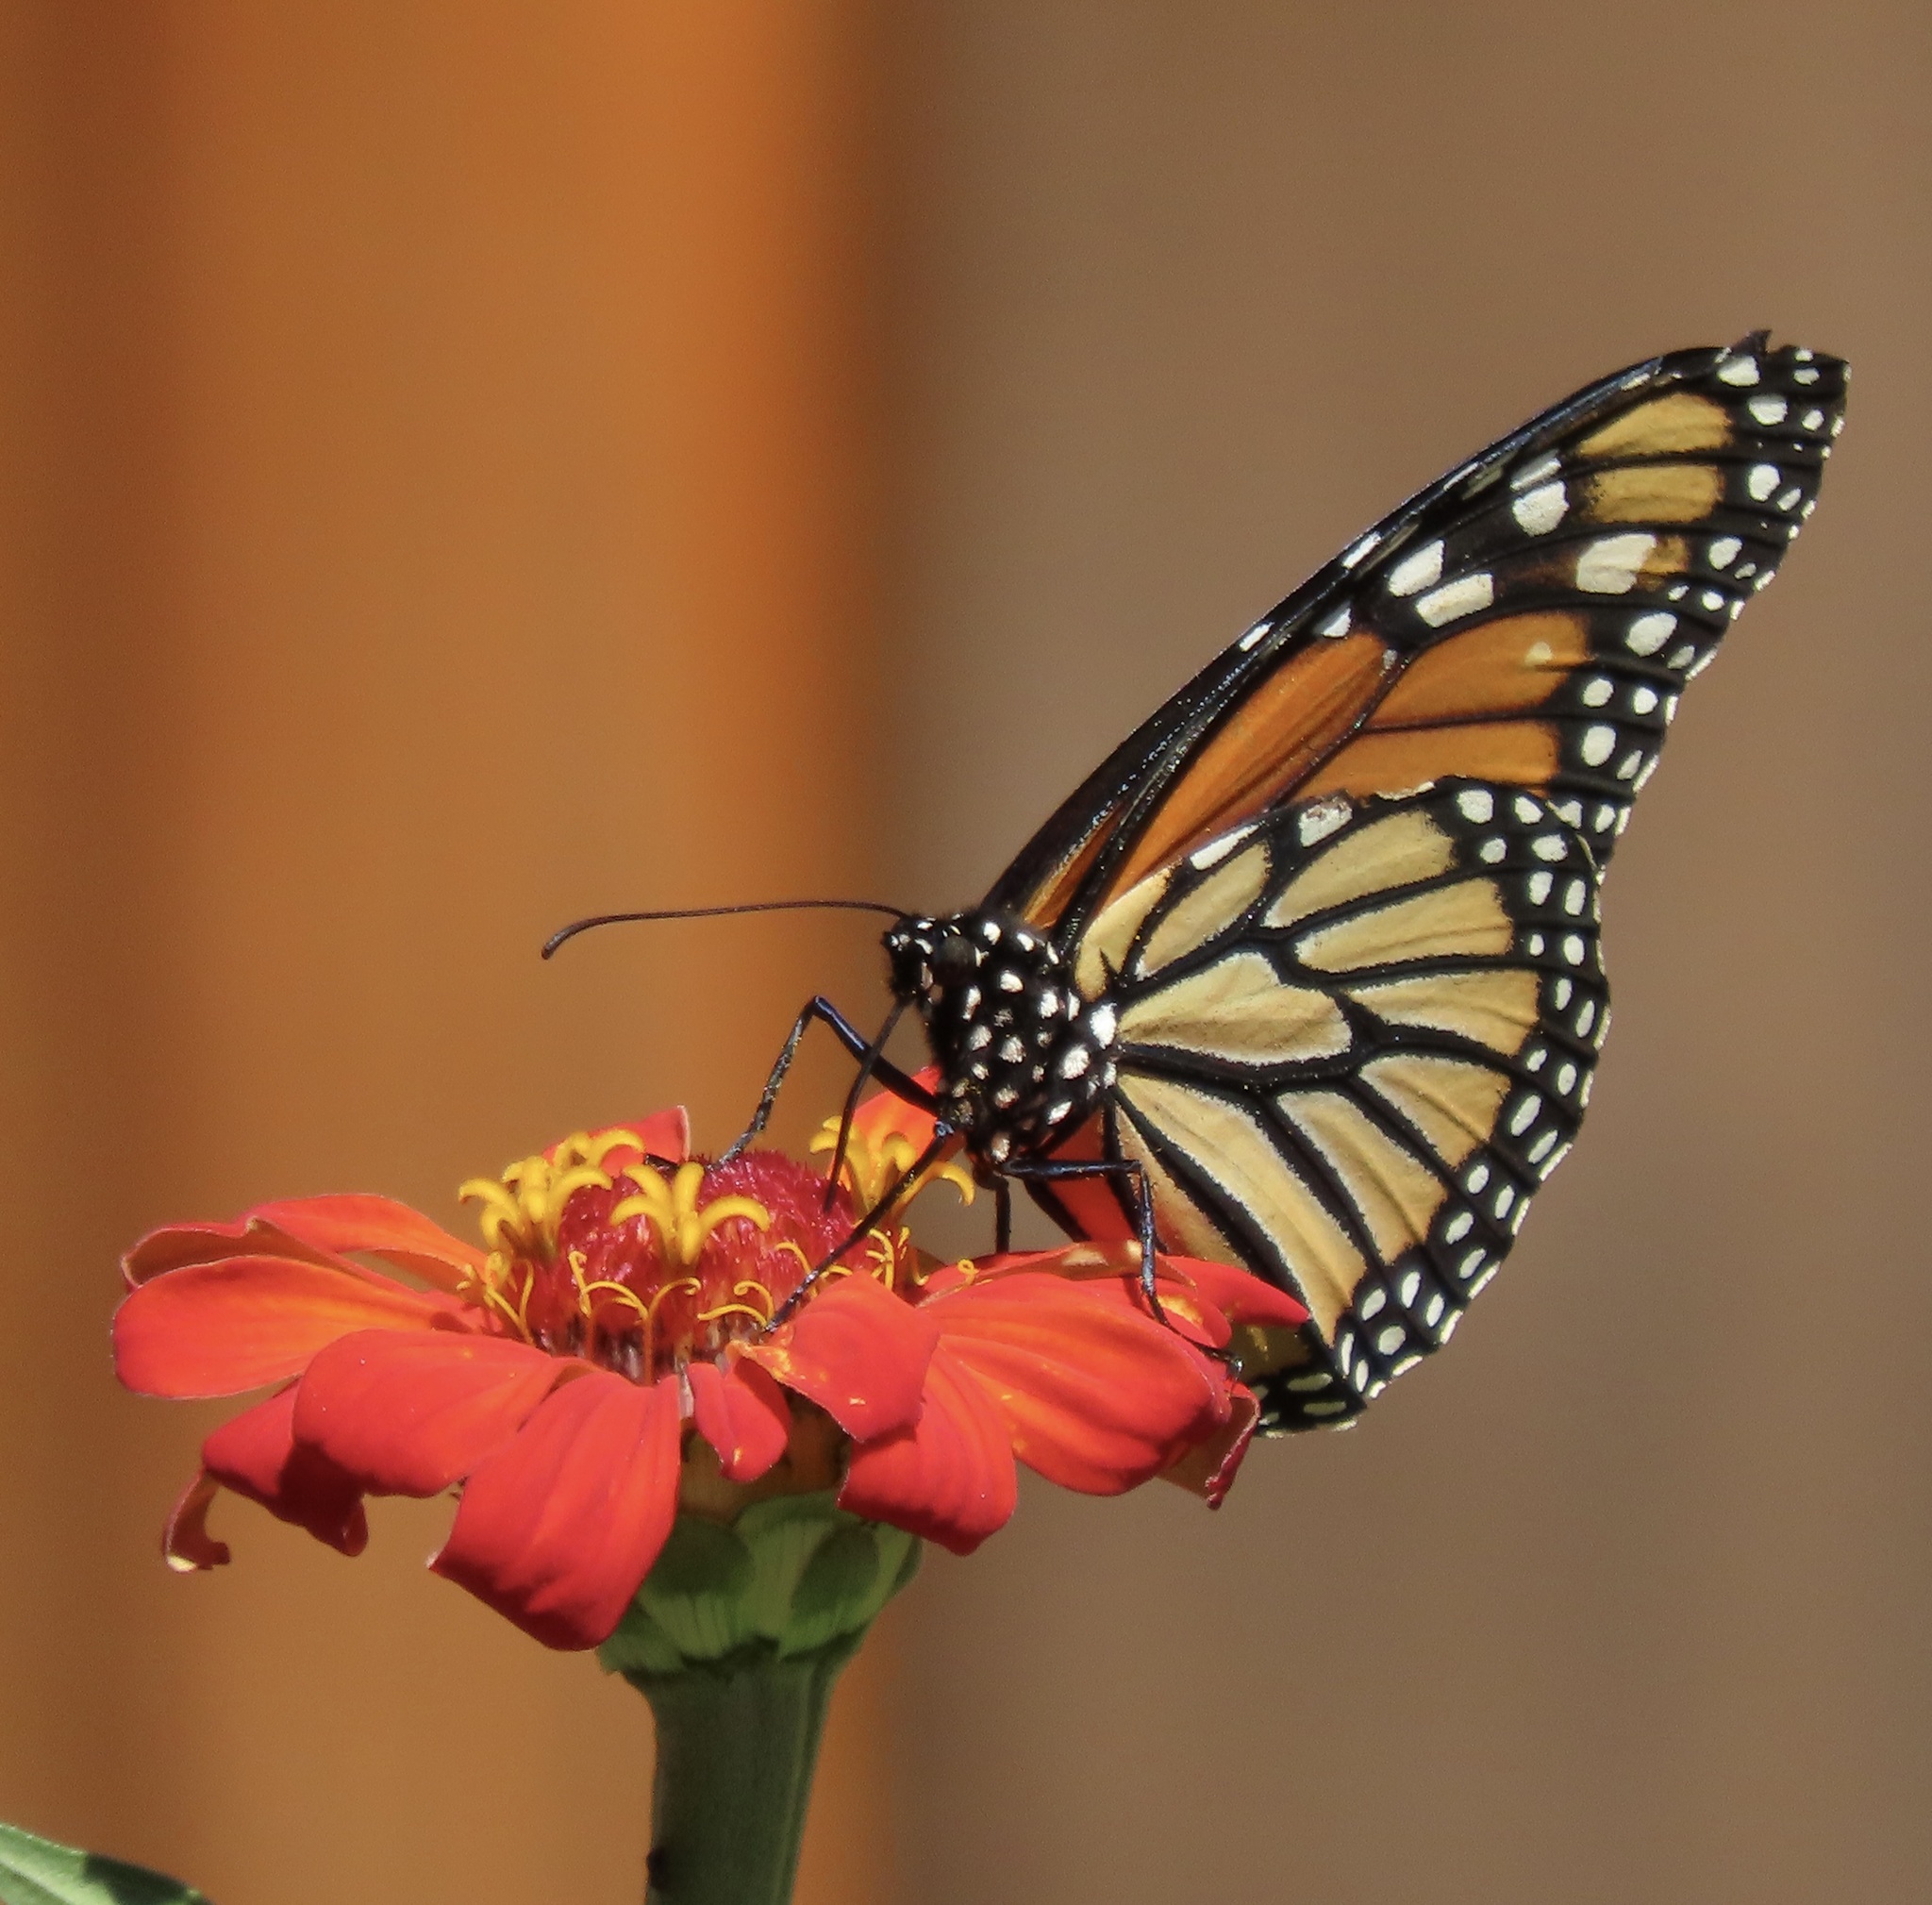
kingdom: Animalia
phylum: Arthropoda
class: Insecta
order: Lepidoptera
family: Nymphalidae
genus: Danaus
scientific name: Danaus plexippus
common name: Monarch
